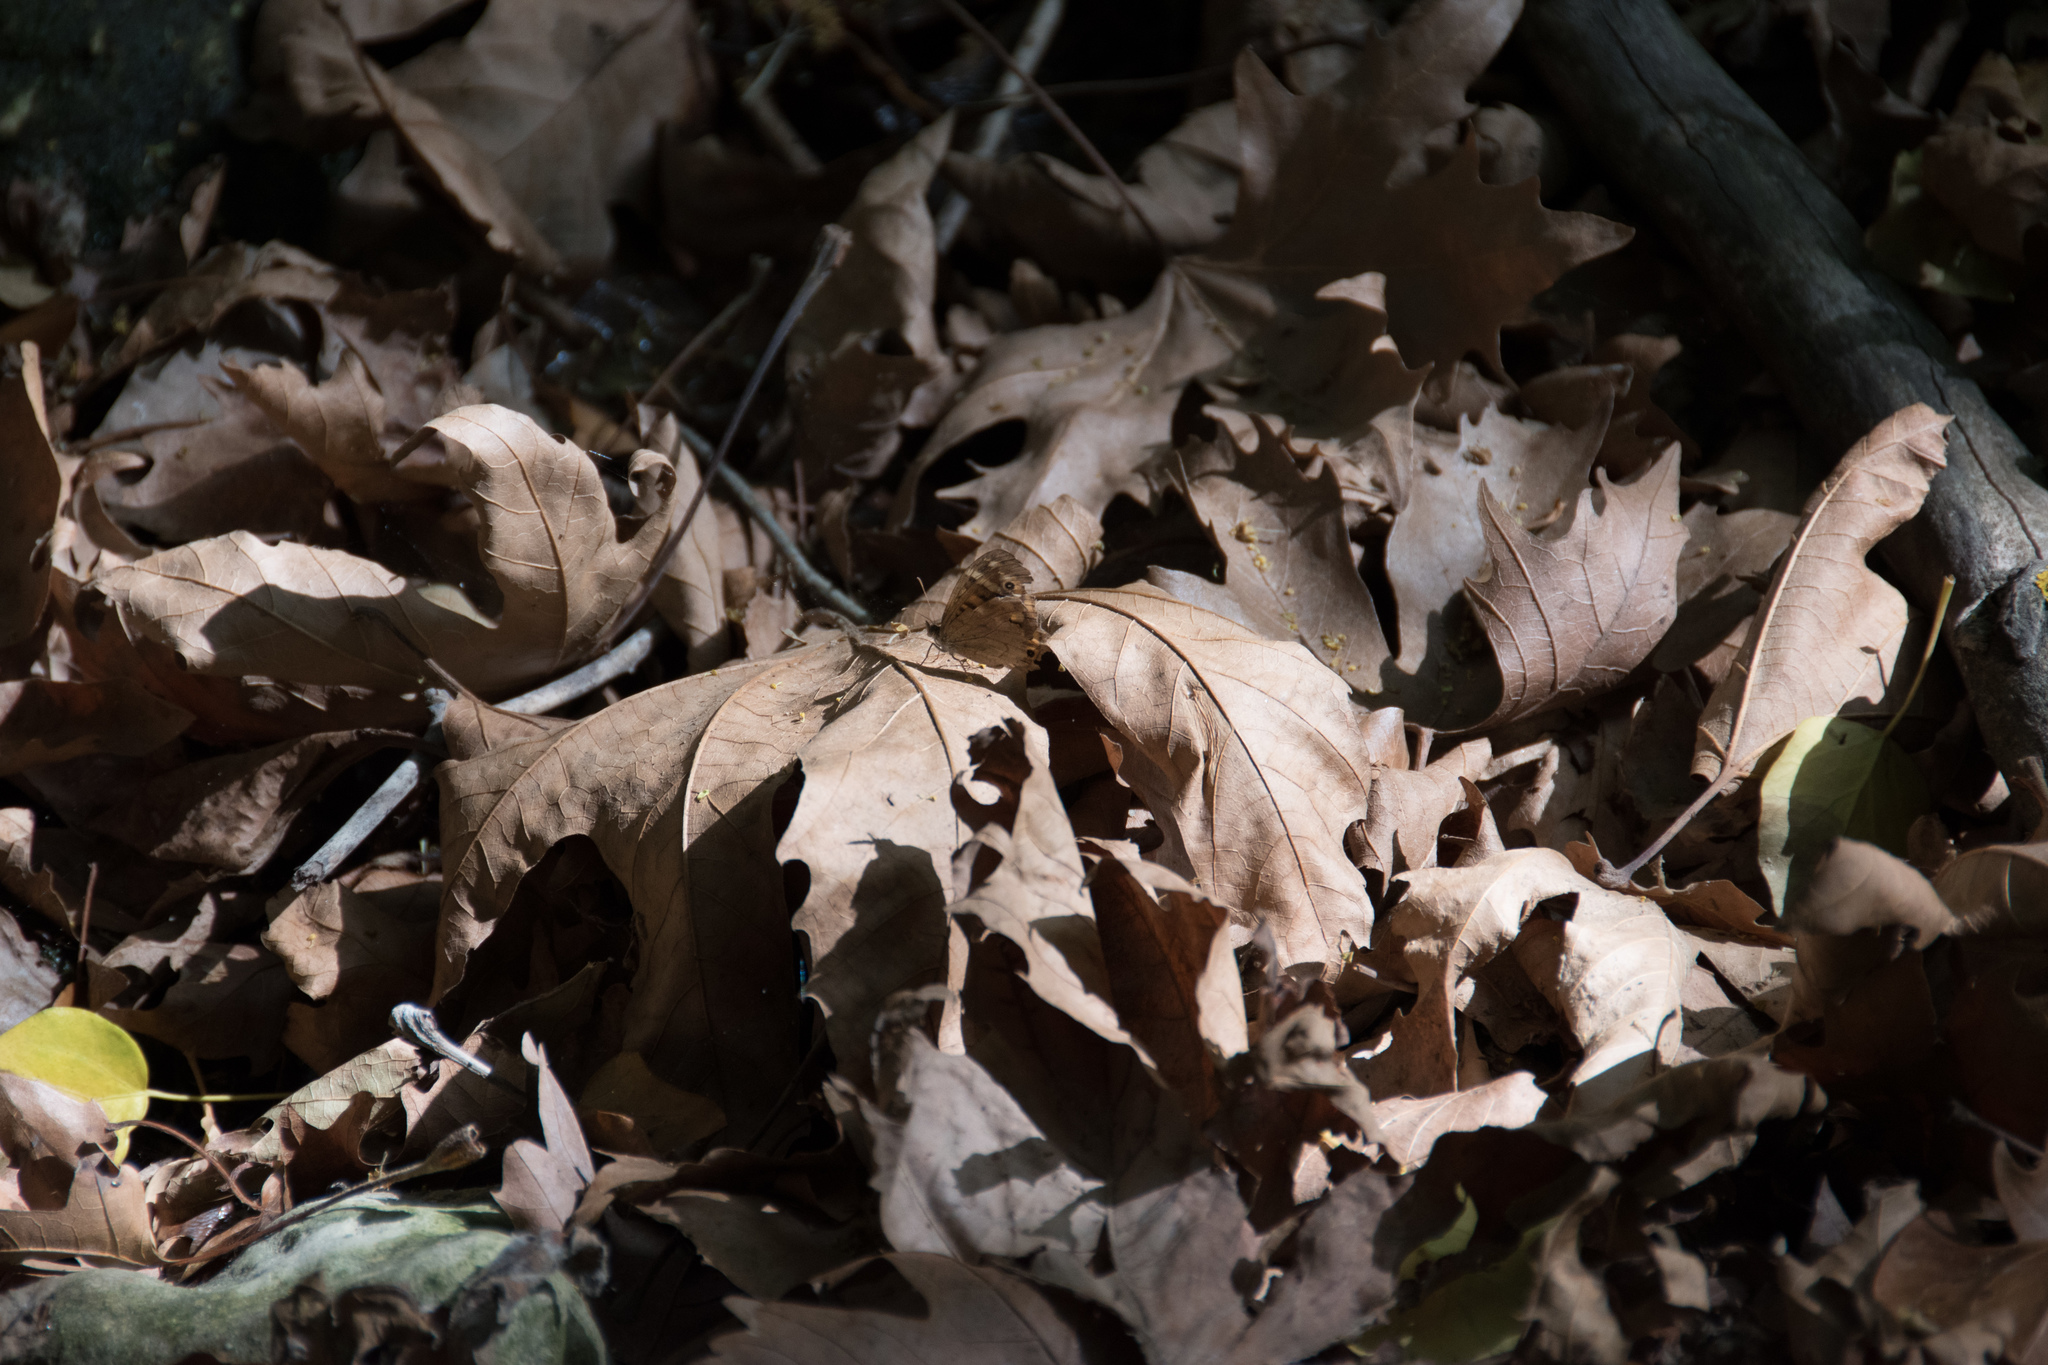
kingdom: Animalia
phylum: Arthropoda
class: Insecta
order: Lepidoptera
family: Nymphalidae
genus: Pararge
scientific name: Pararge aegeria
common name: Speckled wood
